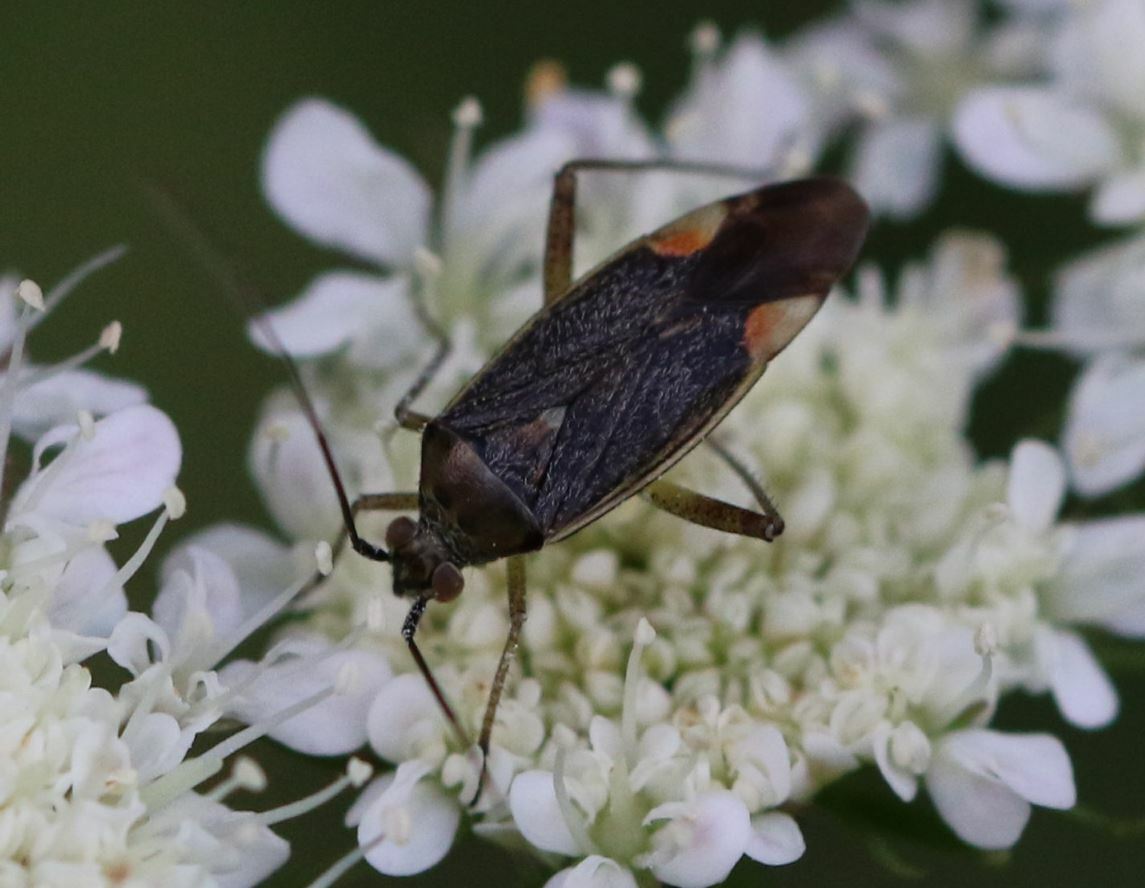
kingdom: Animalia
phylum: Arthropoda
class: Insecta
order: Hemiptera
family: Miridae
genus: Closterotomus
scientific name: Closterotomus trivialis
